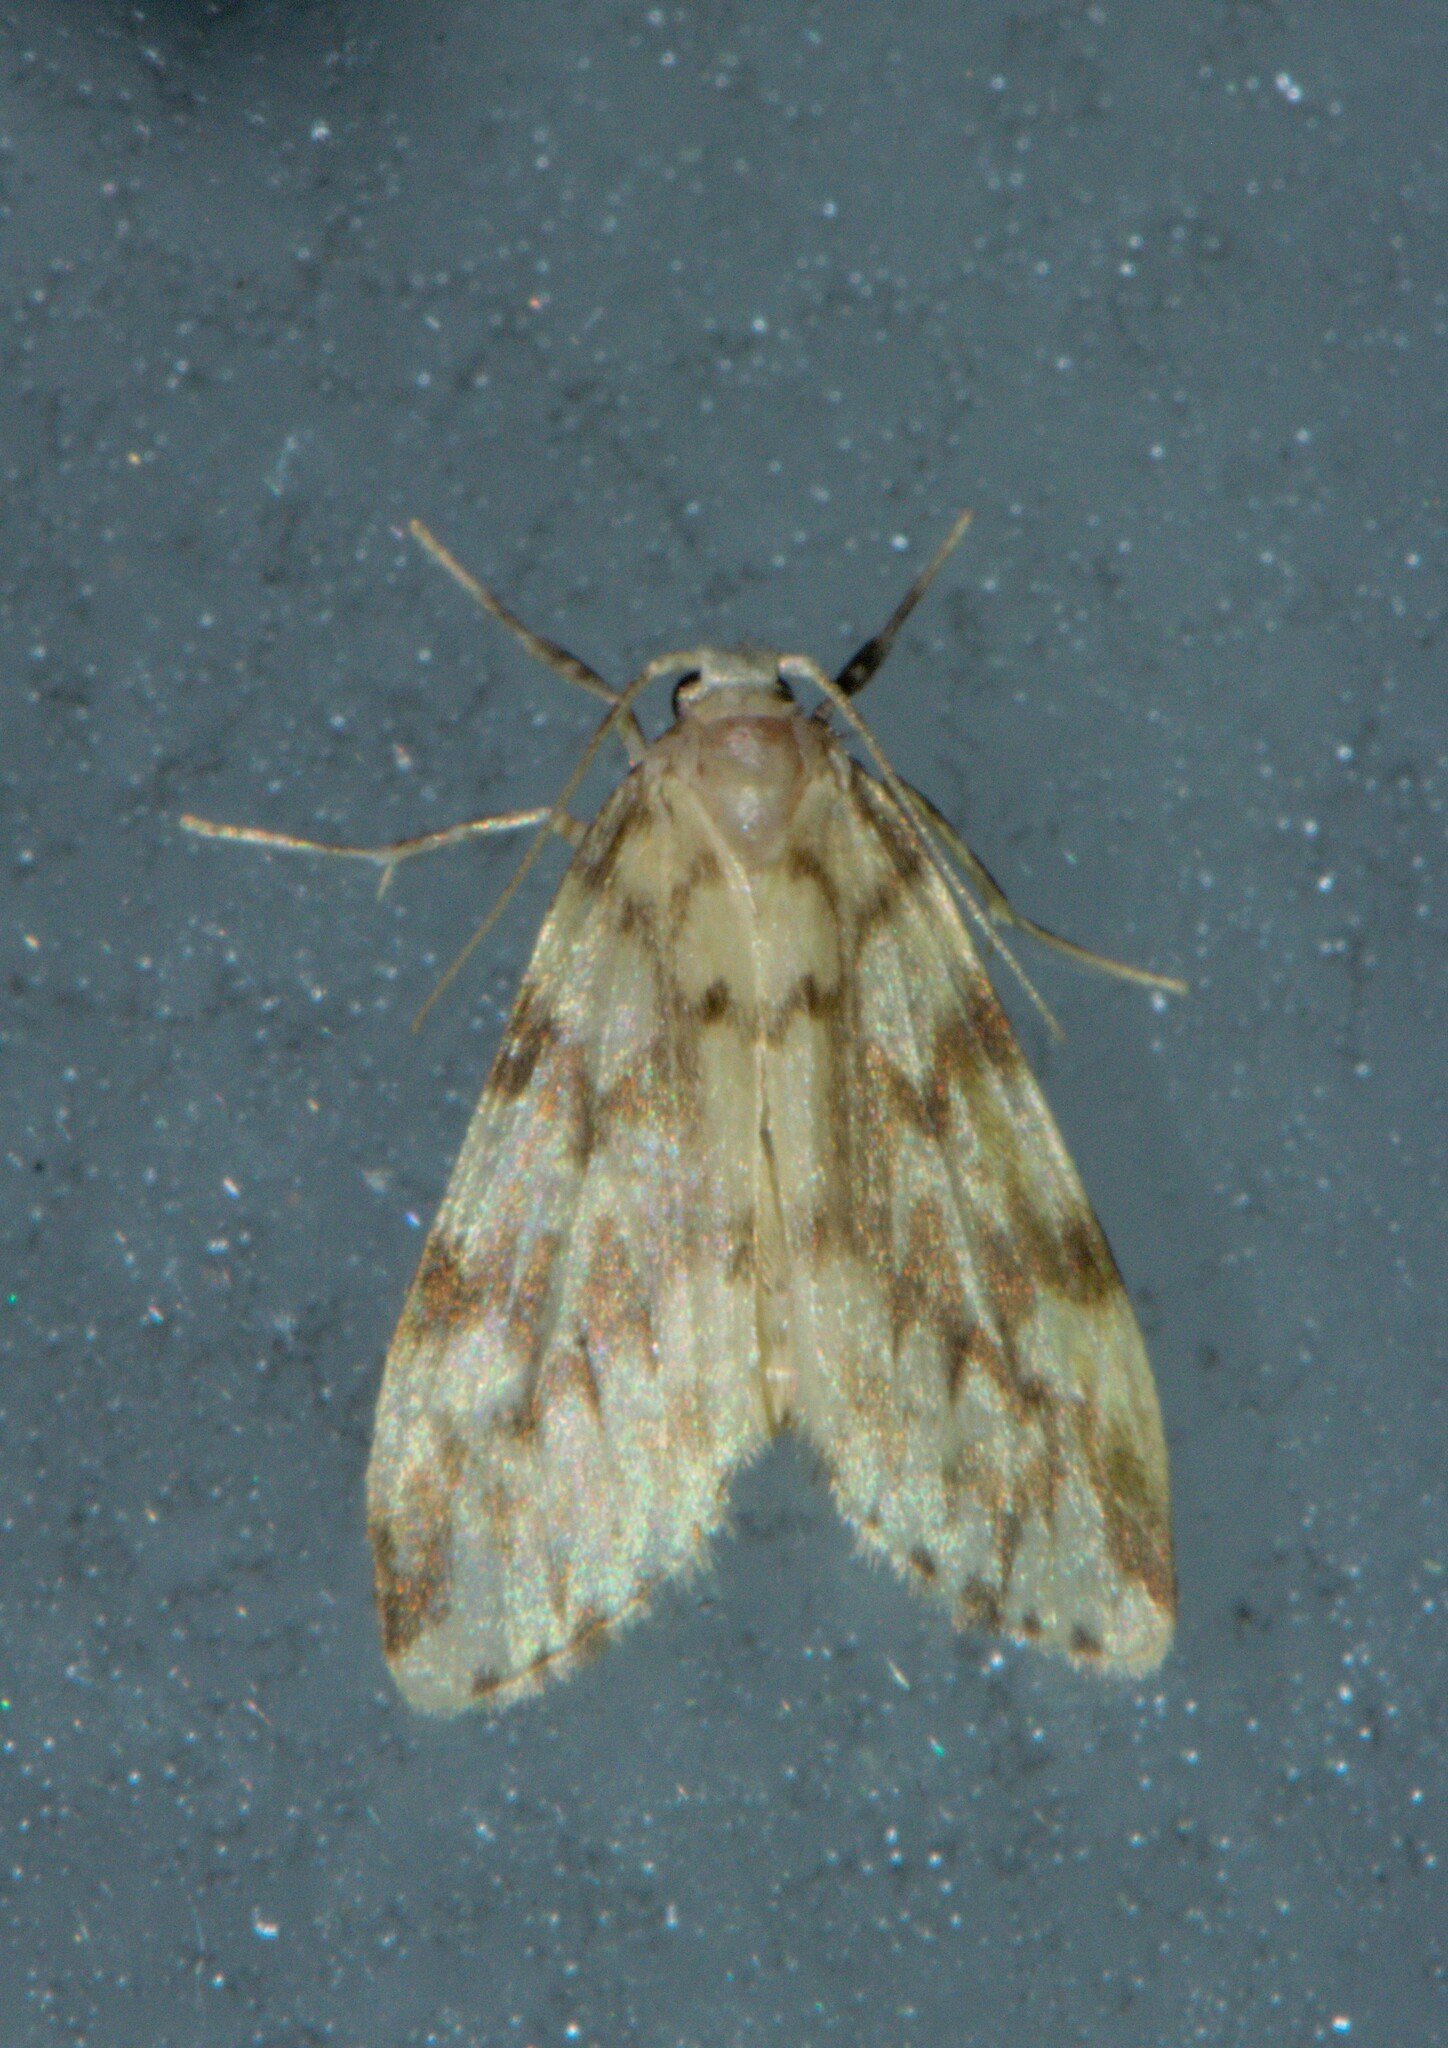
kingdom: Animalia
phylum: Arthropoda
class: Insecta
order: Lepidoptera
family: Erebidae
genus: Nudaria
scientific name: Nudaria margaritacea
